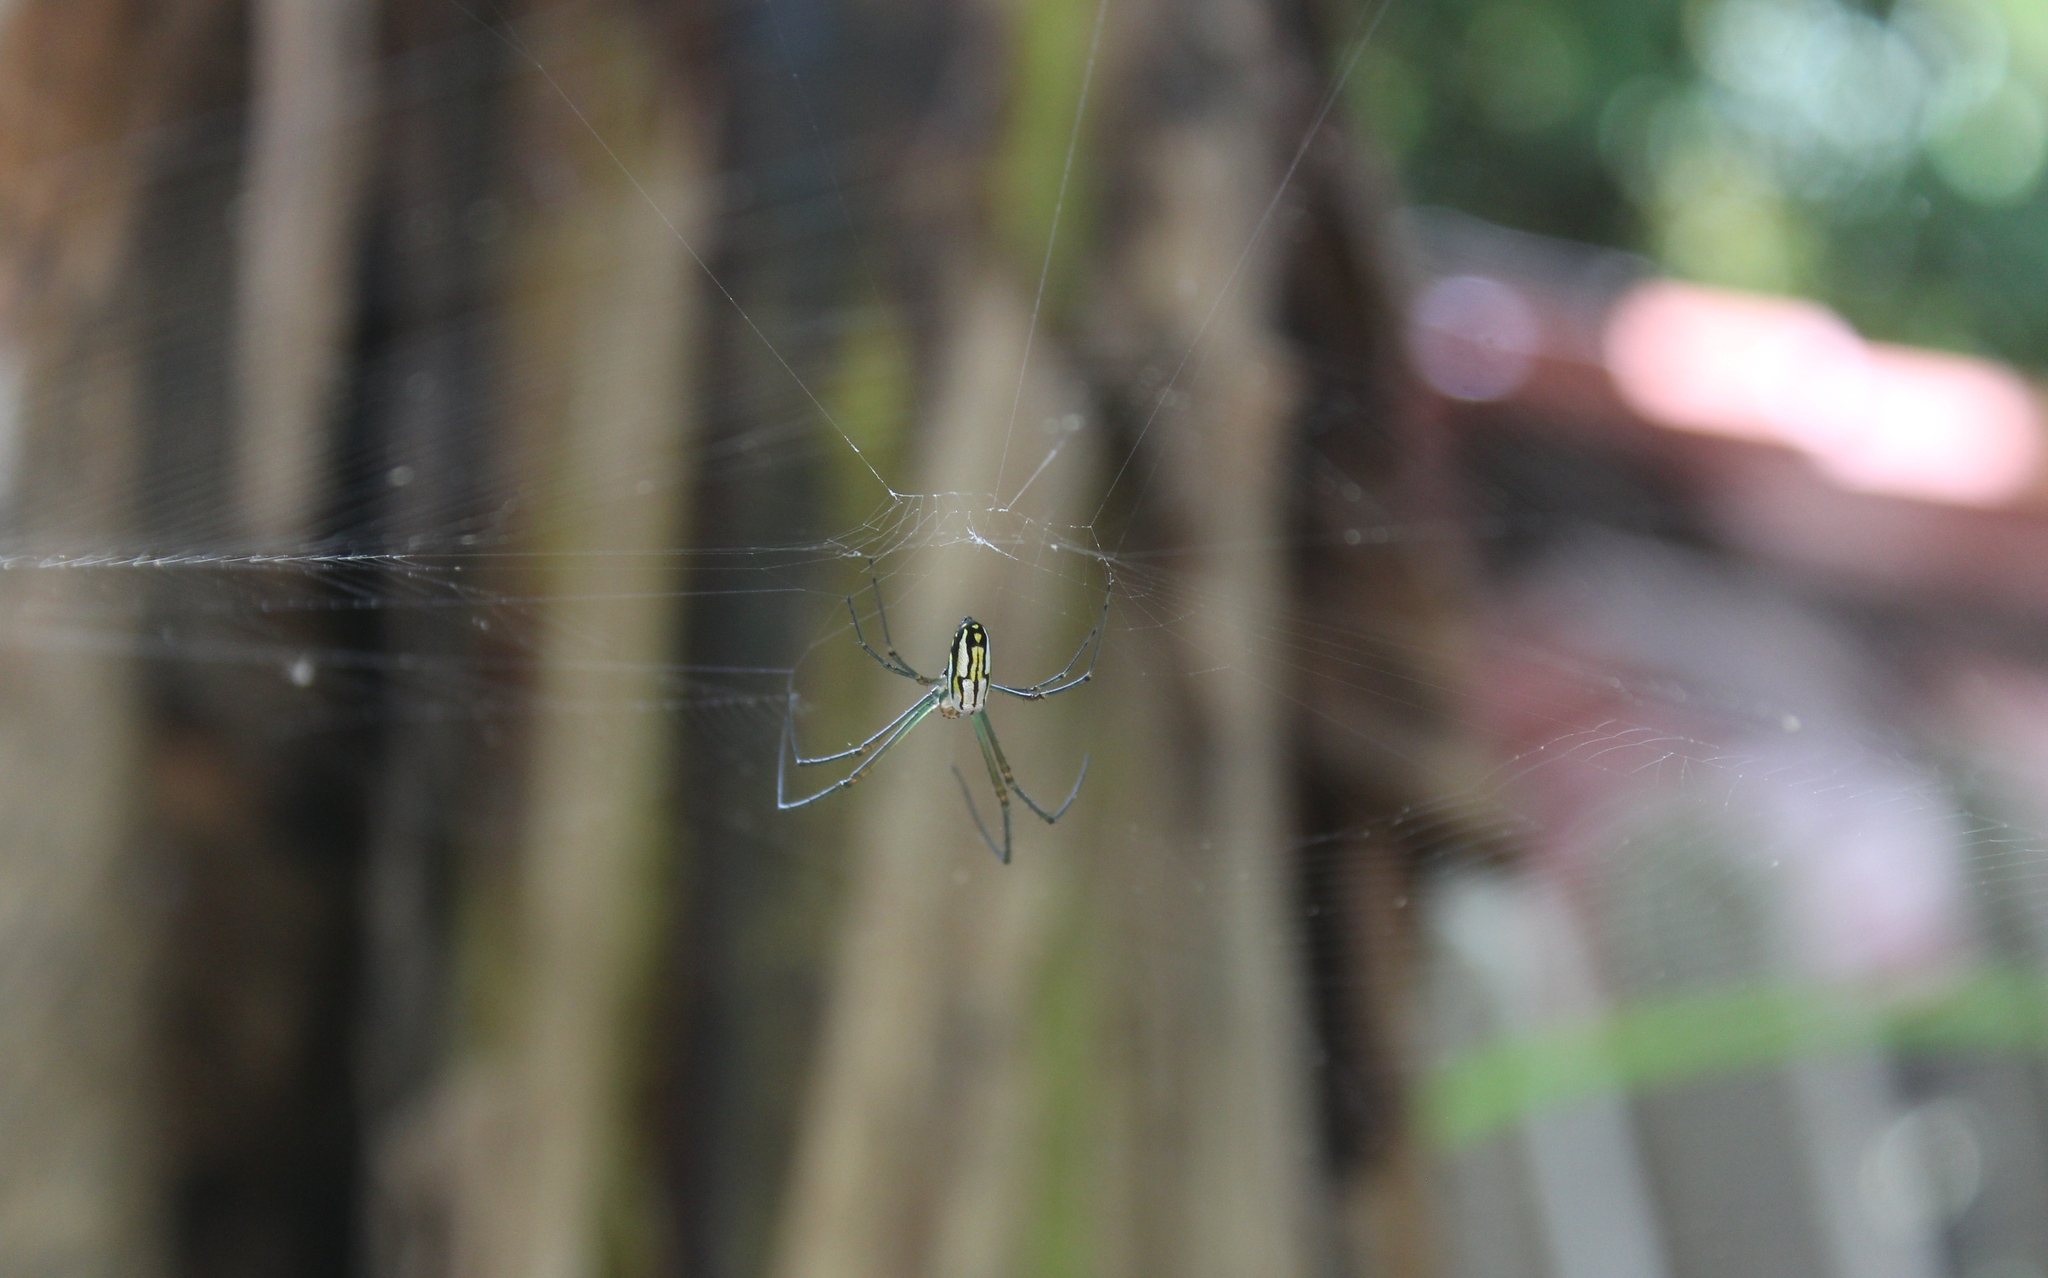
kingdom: Animalia
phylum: Arthropoda
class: Arachnida
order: Araneae
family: Tetragnathidae
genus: Leucauge
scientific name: Leucauge argyra
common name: Longjawed orb weavers
